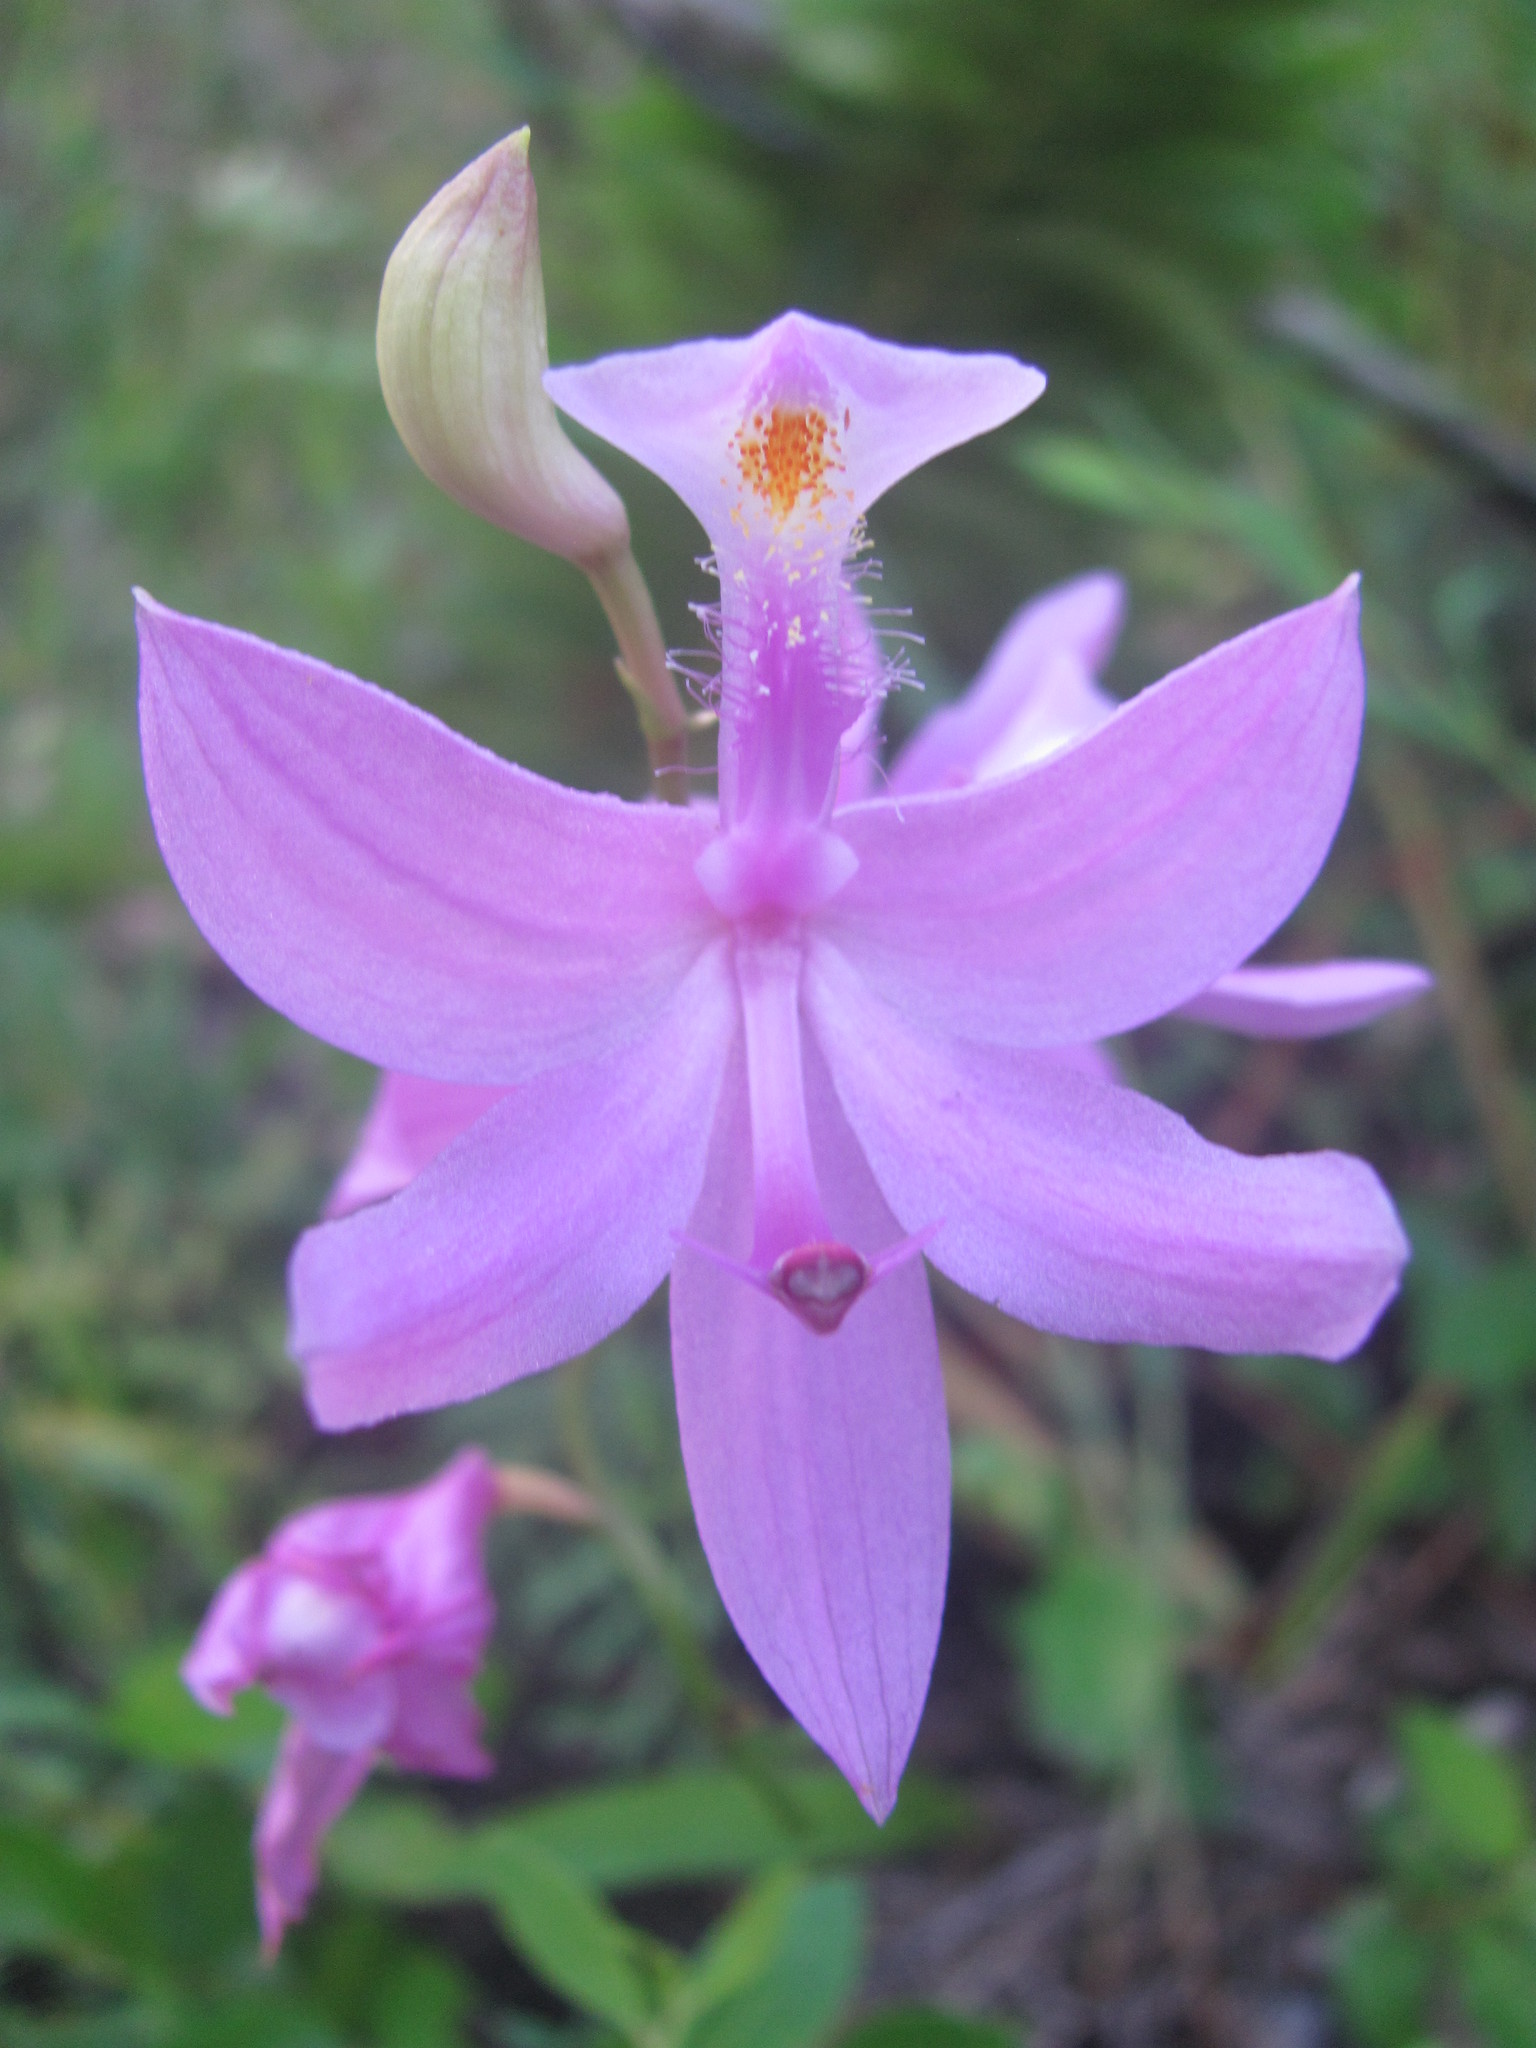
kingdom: Plantae
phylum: Tracheophyta
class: Liliopsida
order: Asparagales
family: Orchidaceae
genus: Calopogon
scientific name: Calopogon tuberosus
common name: Grass-pink
